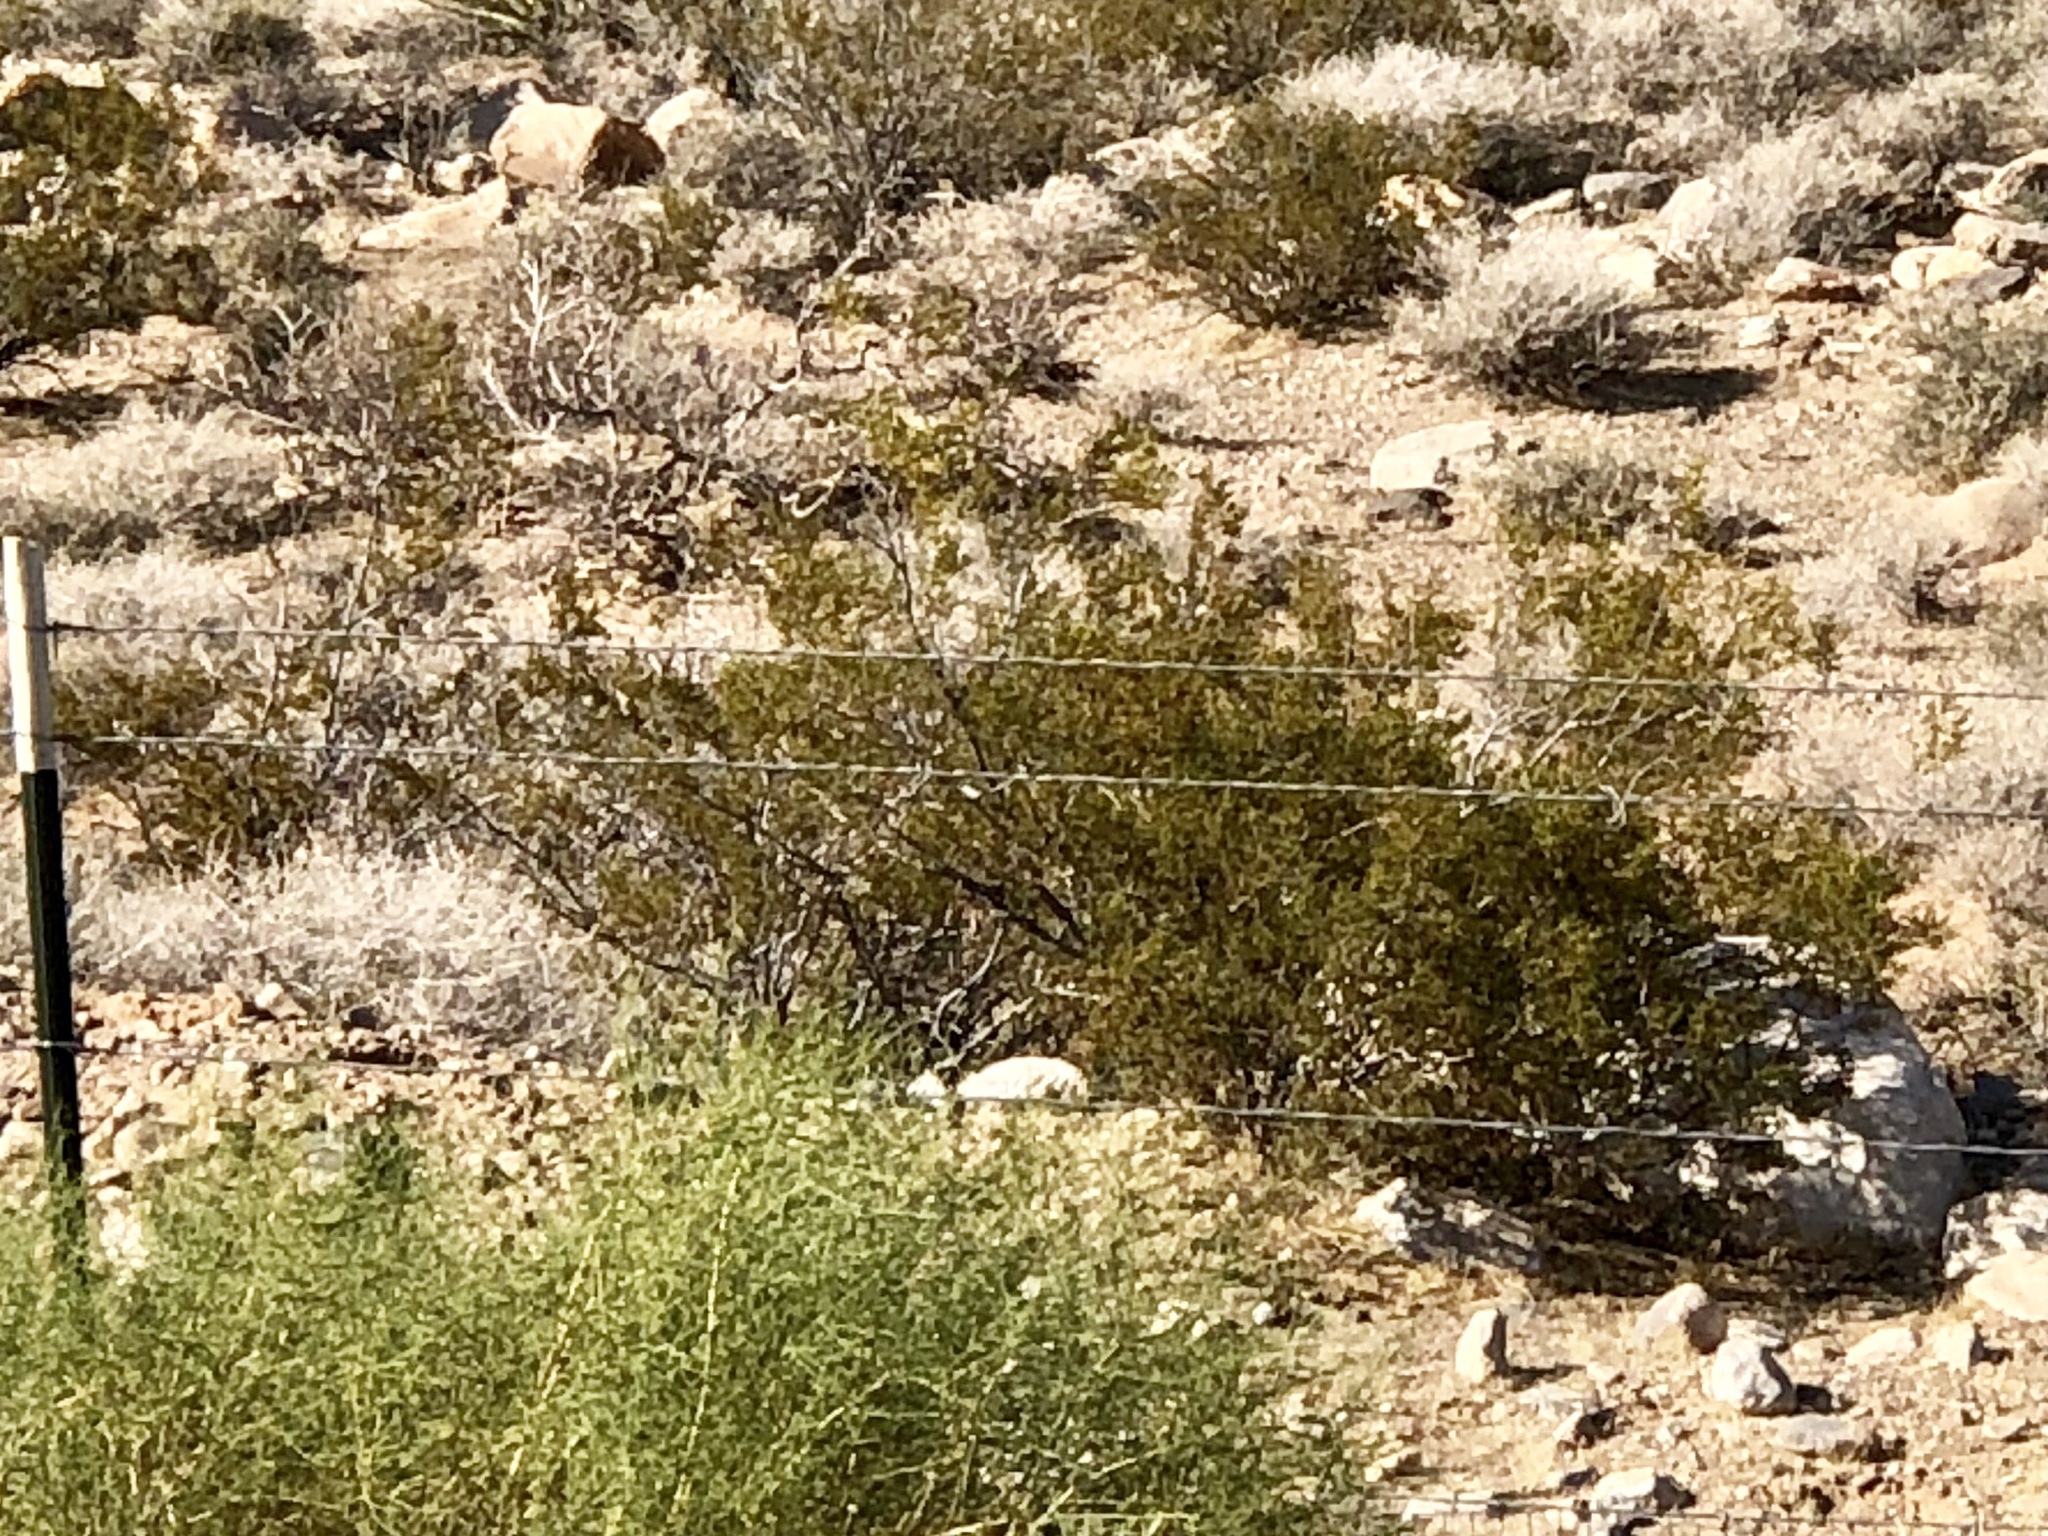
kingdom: Plantae
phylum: Tracheophyta
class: Magnoliopsida
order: Zygophyllales
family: Zygophyllaceae
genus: Larrea
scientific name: Larrea tridentata
